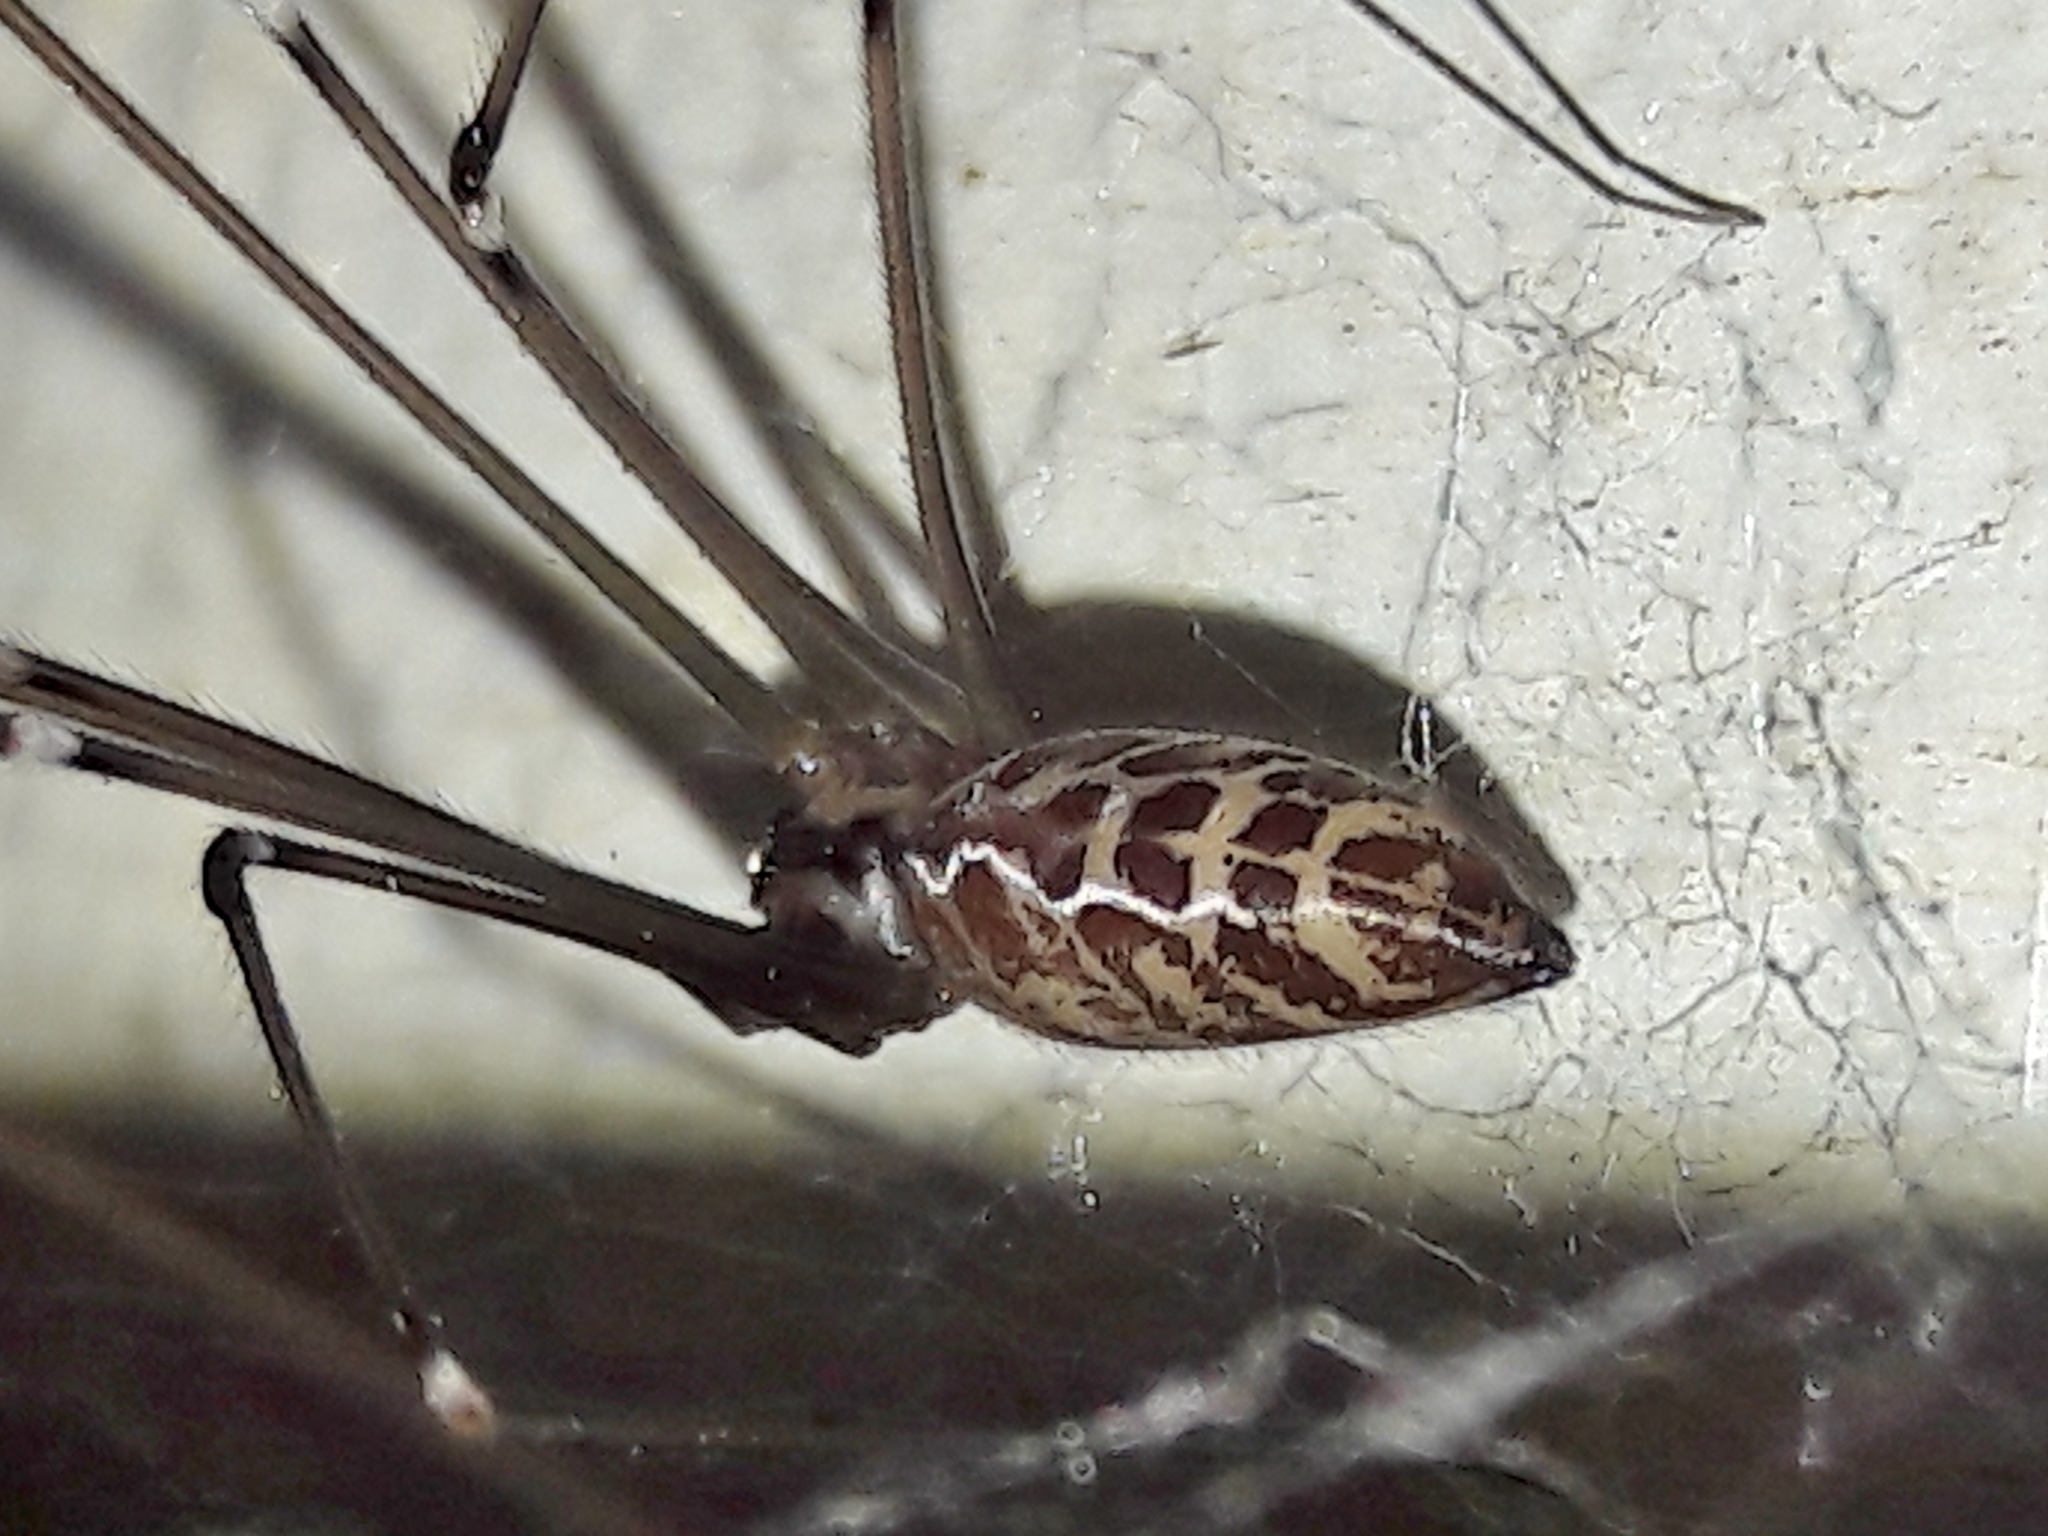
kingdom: Animalia
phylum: Arthropoda
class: Arachnida
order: Araneae
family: Pholcidae
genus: Smeringopus
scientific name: Smeringopus pallidus
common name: Cellar spider
